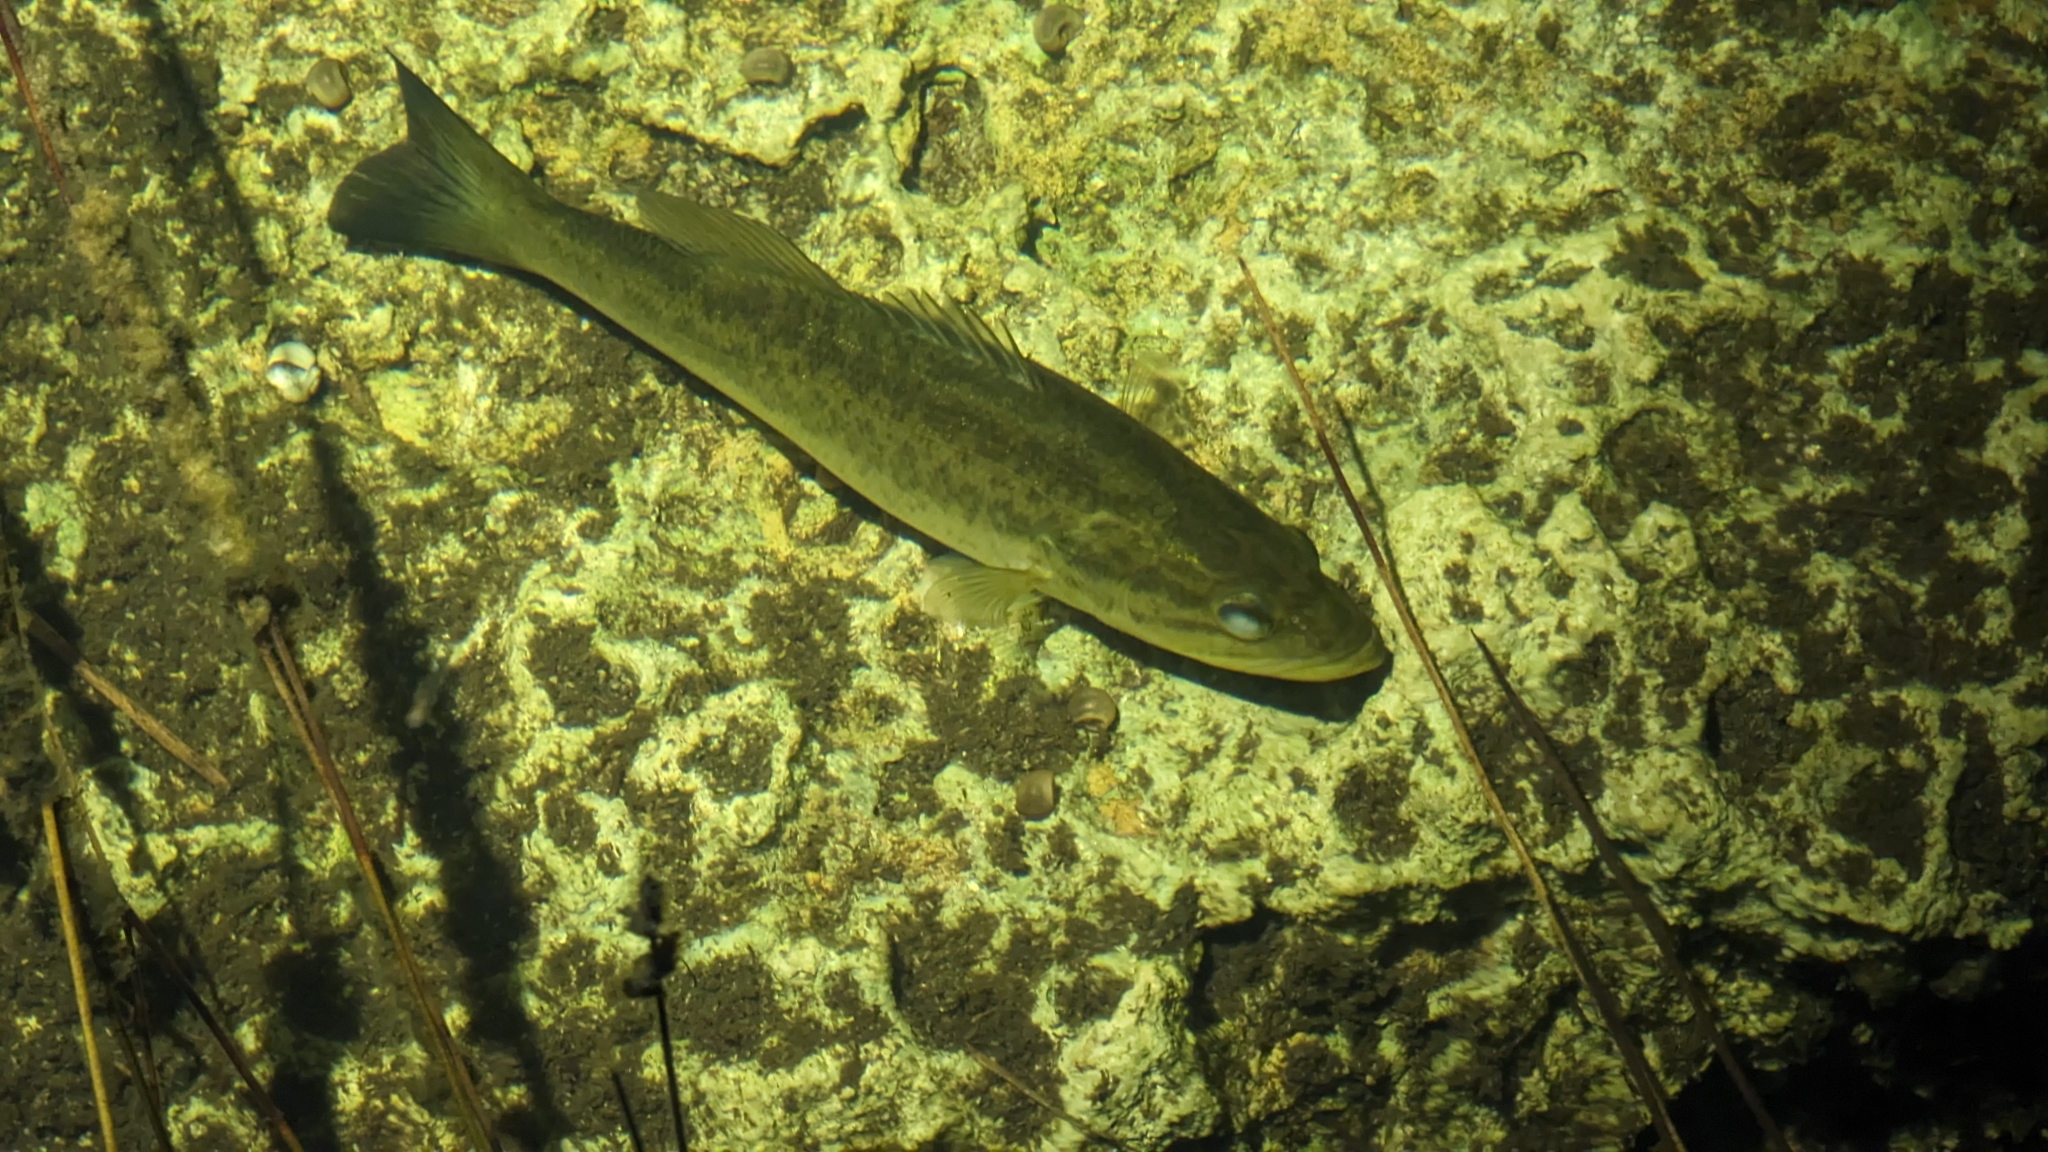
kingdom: Animalia
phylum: Chordata
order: Perciformes
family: Centrarchidae
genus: Micropterus
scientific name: Micropterus salmoides
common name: Largemouth bass
